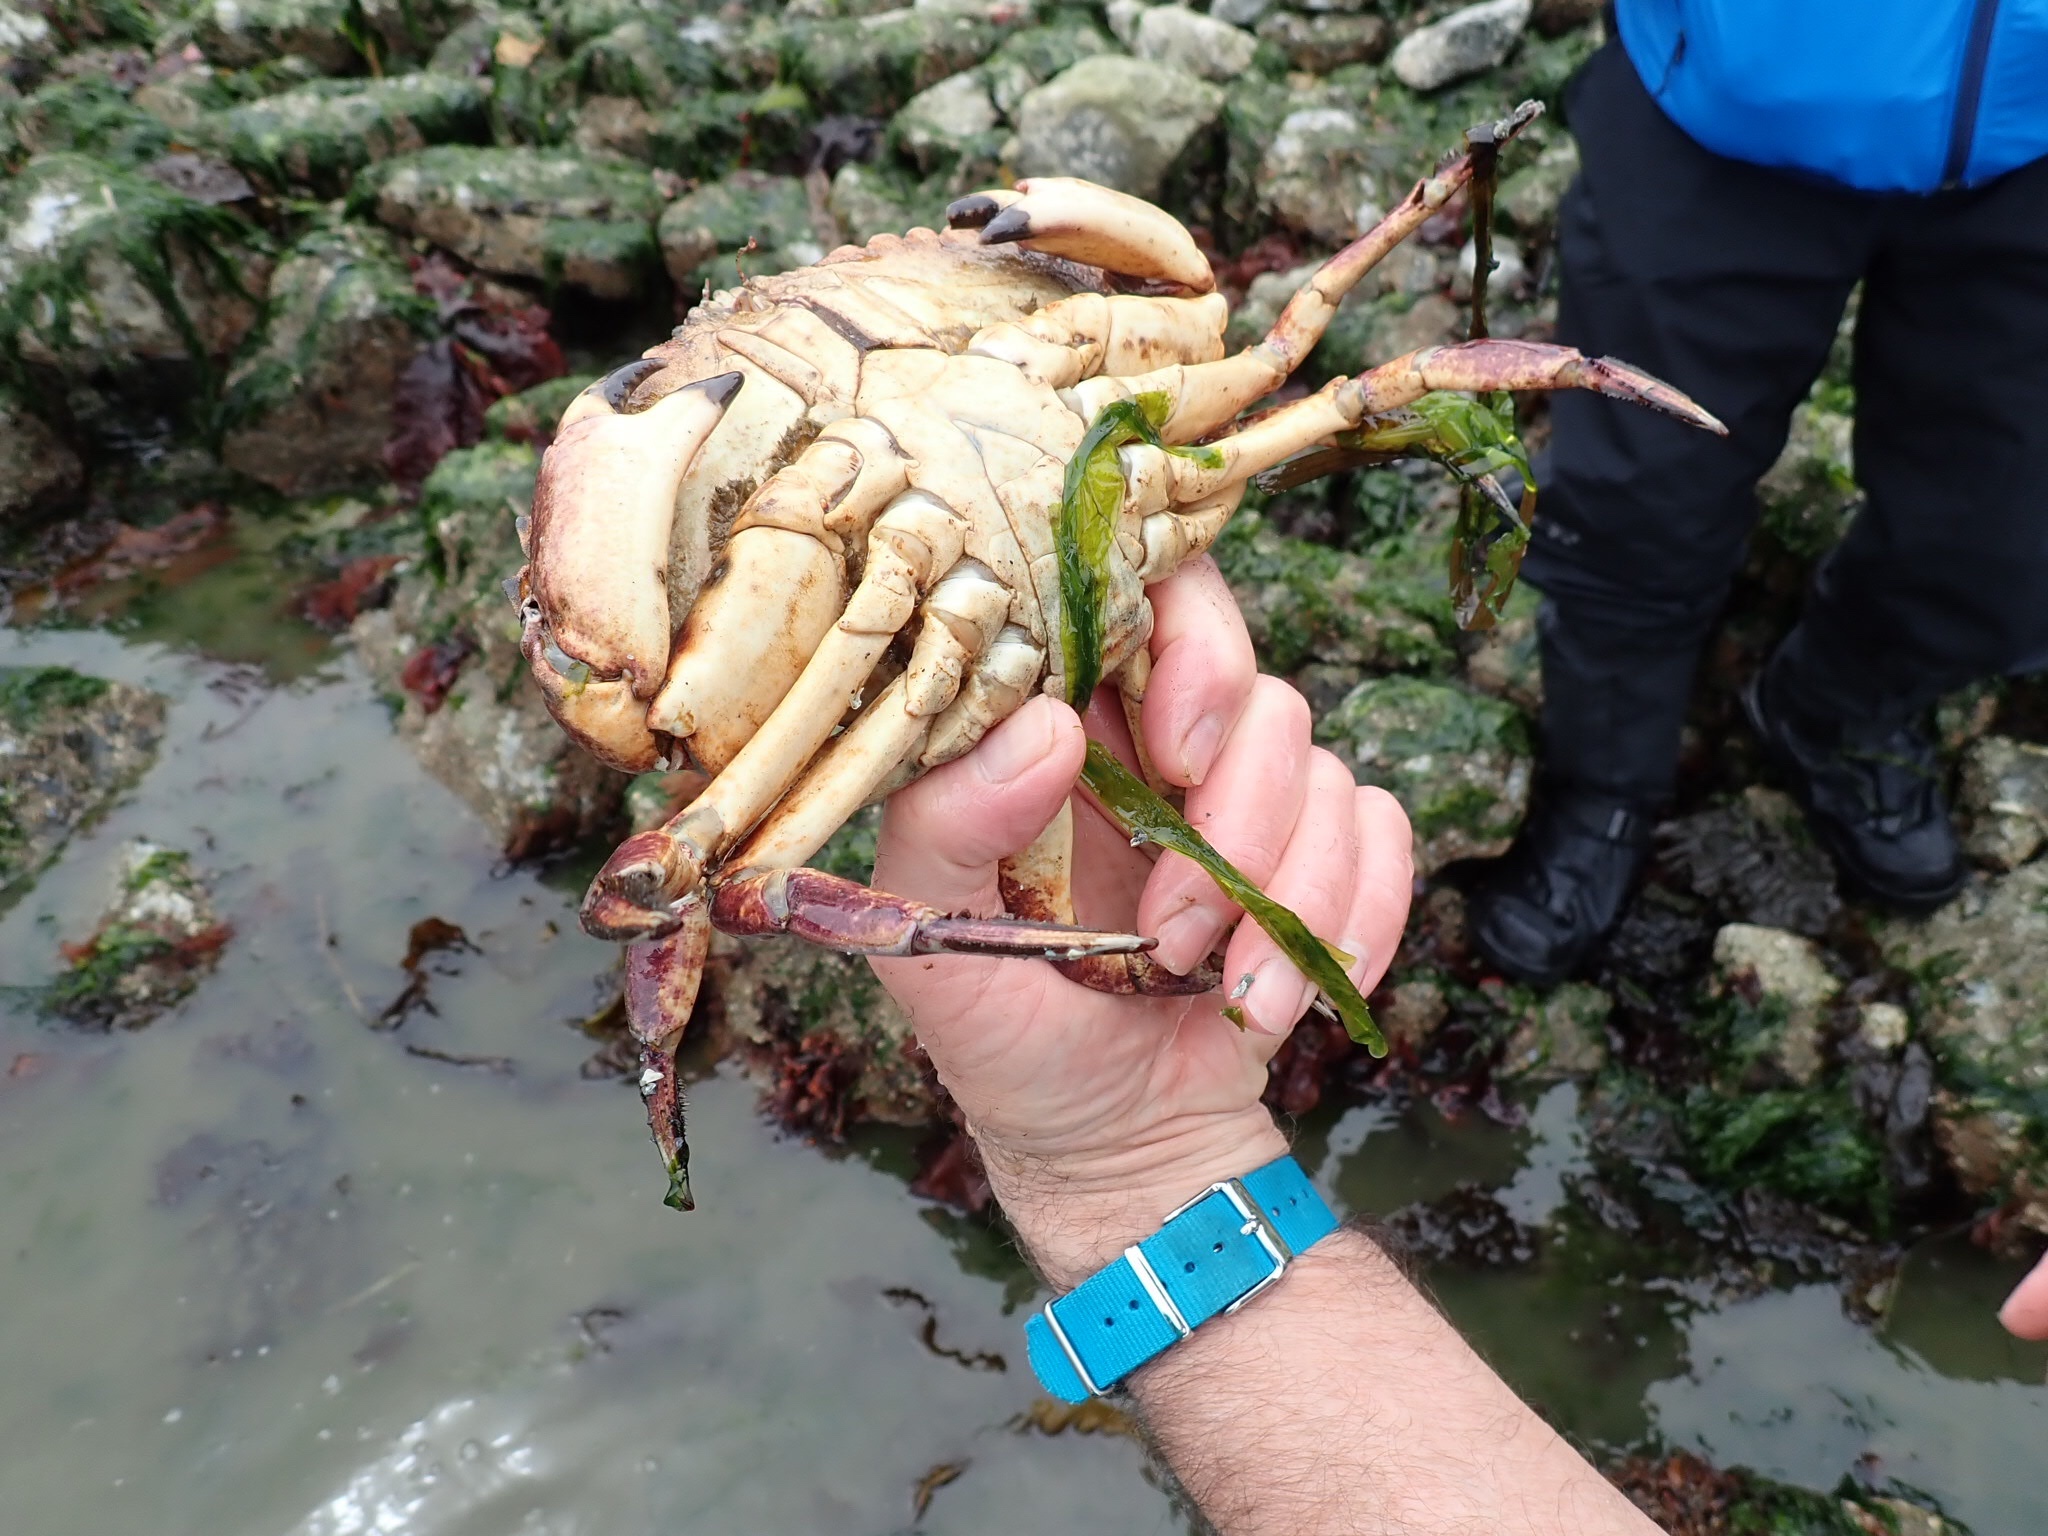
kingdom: Animalia
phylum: Arthropoda
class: Malacostraca
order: Decapoda
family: Cancridae
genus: Cancer
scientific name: Cancer productus
